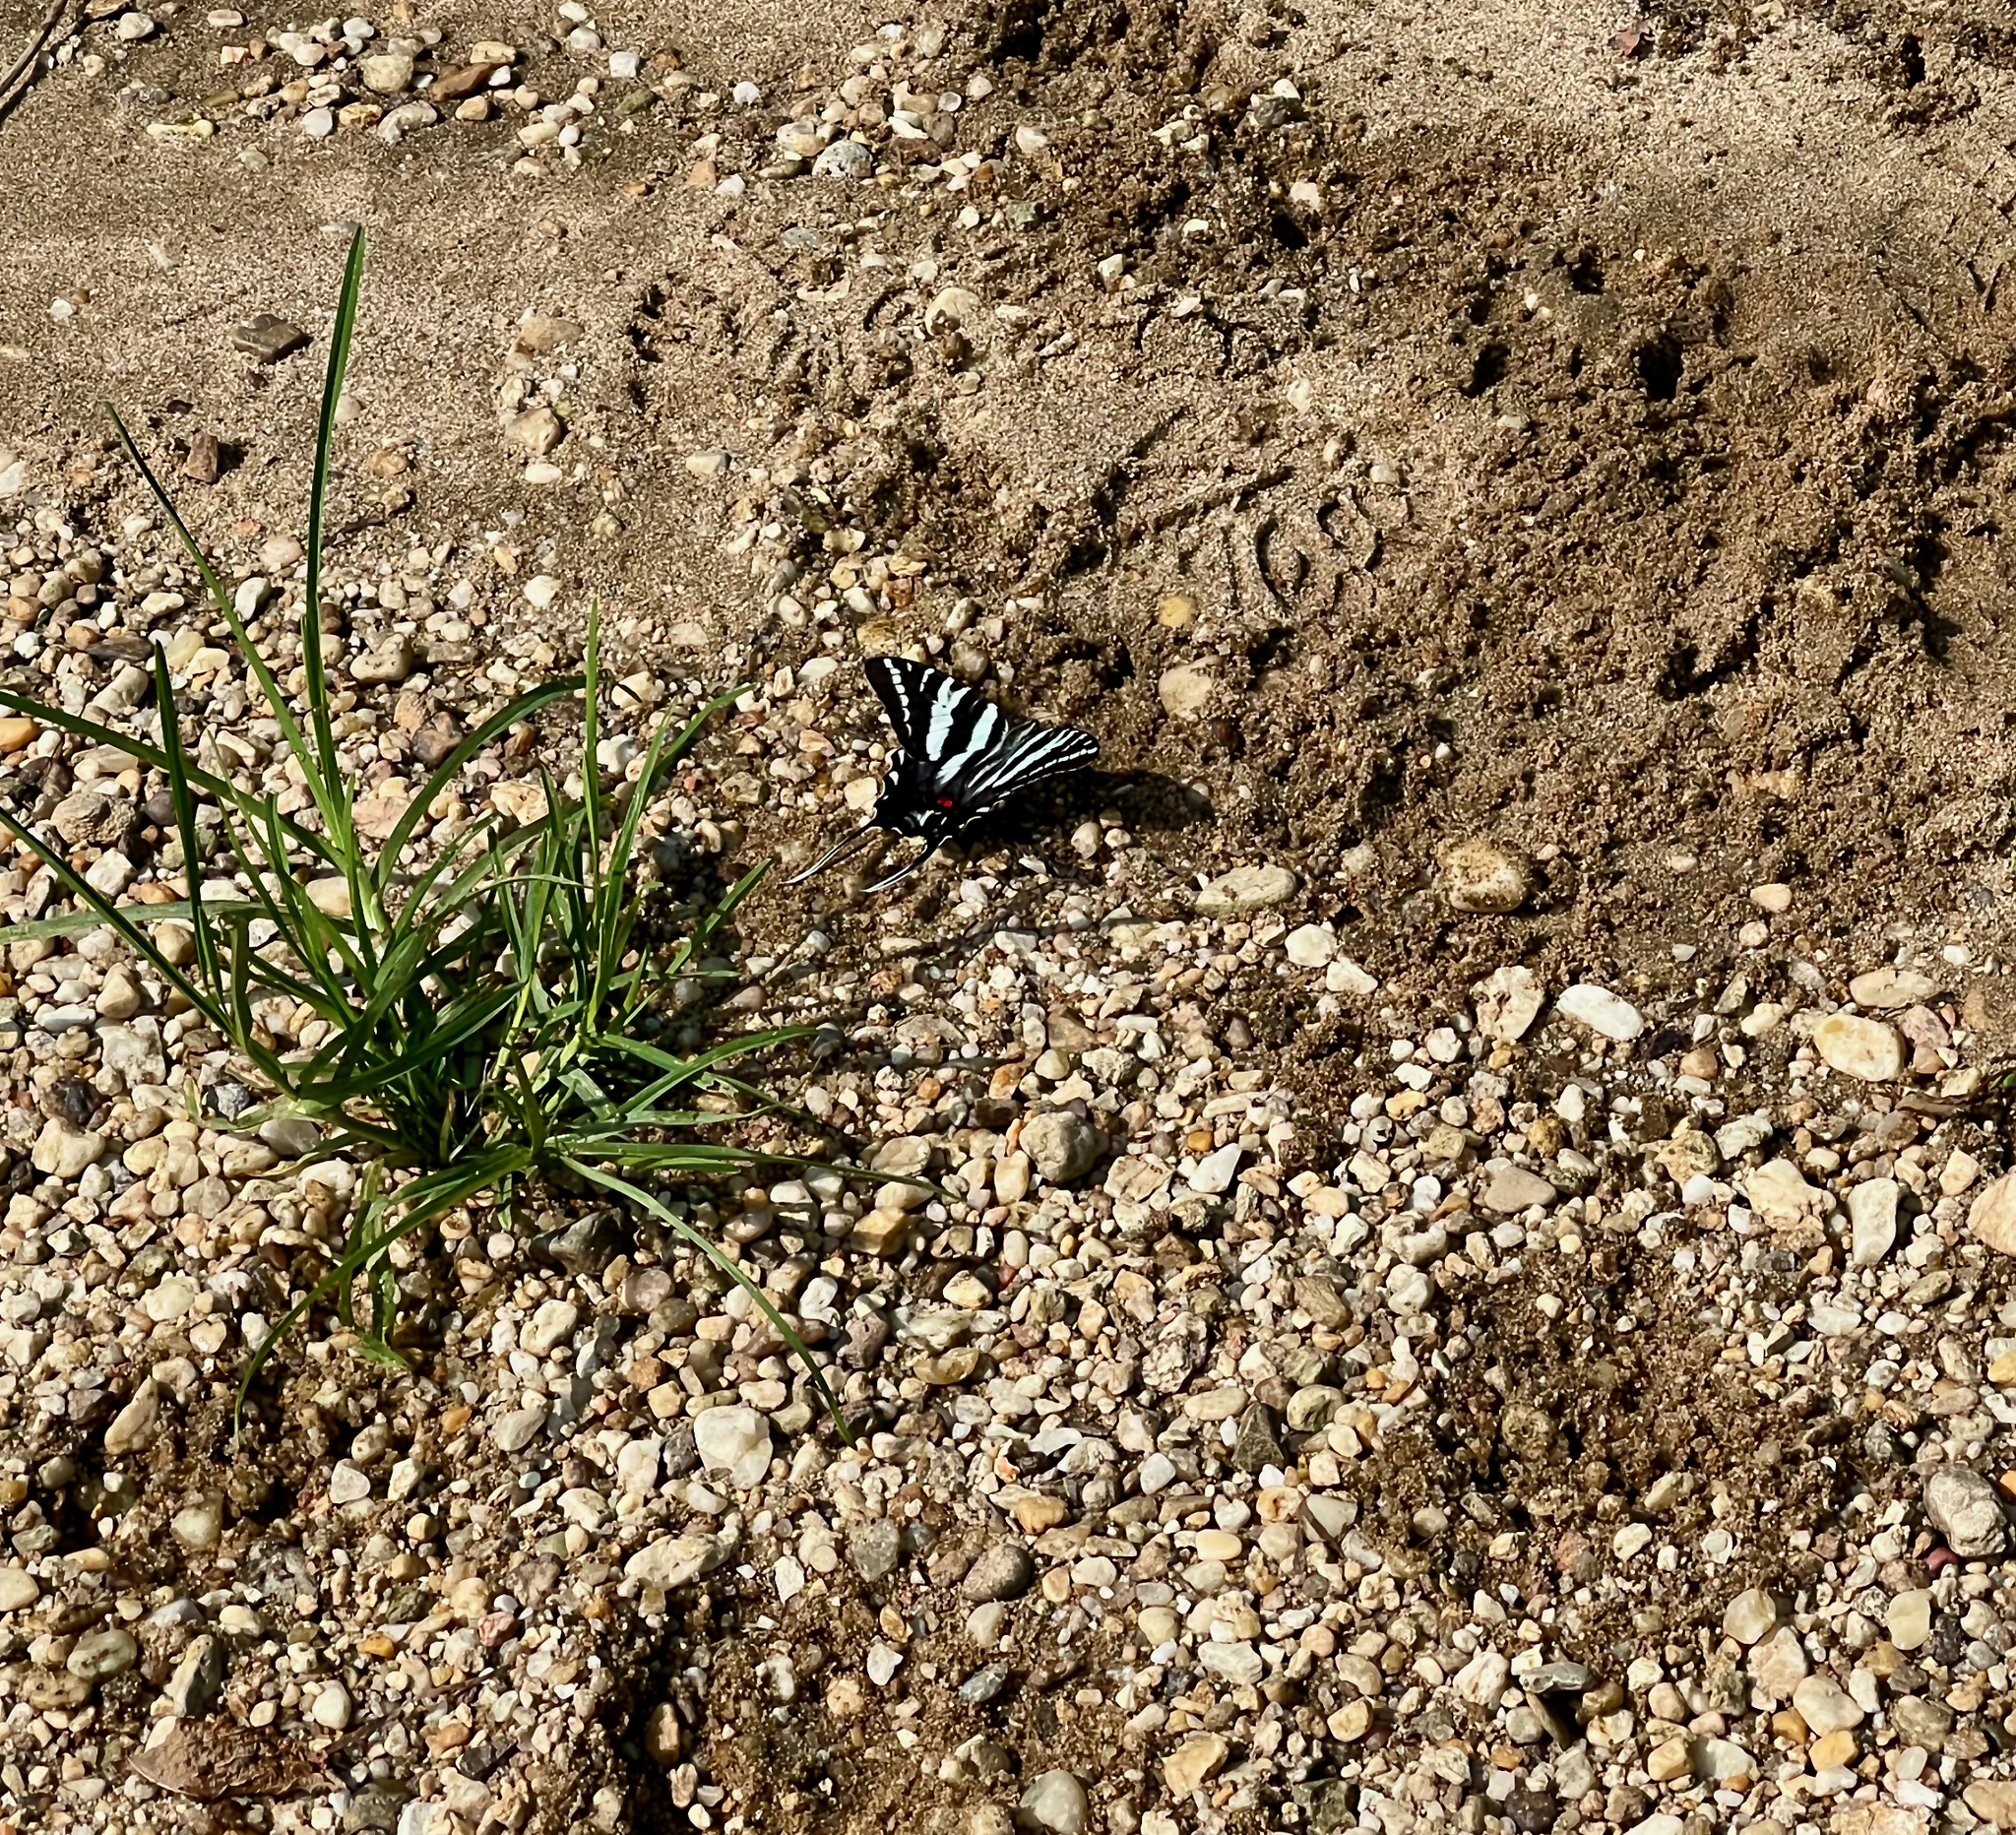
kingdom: Animalia
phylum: Arthropoda
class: Insecta
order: Lepidoptera
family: Papilionidae
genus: Protographium
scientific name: Protographium marcellus
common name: Zebra swallowtail
